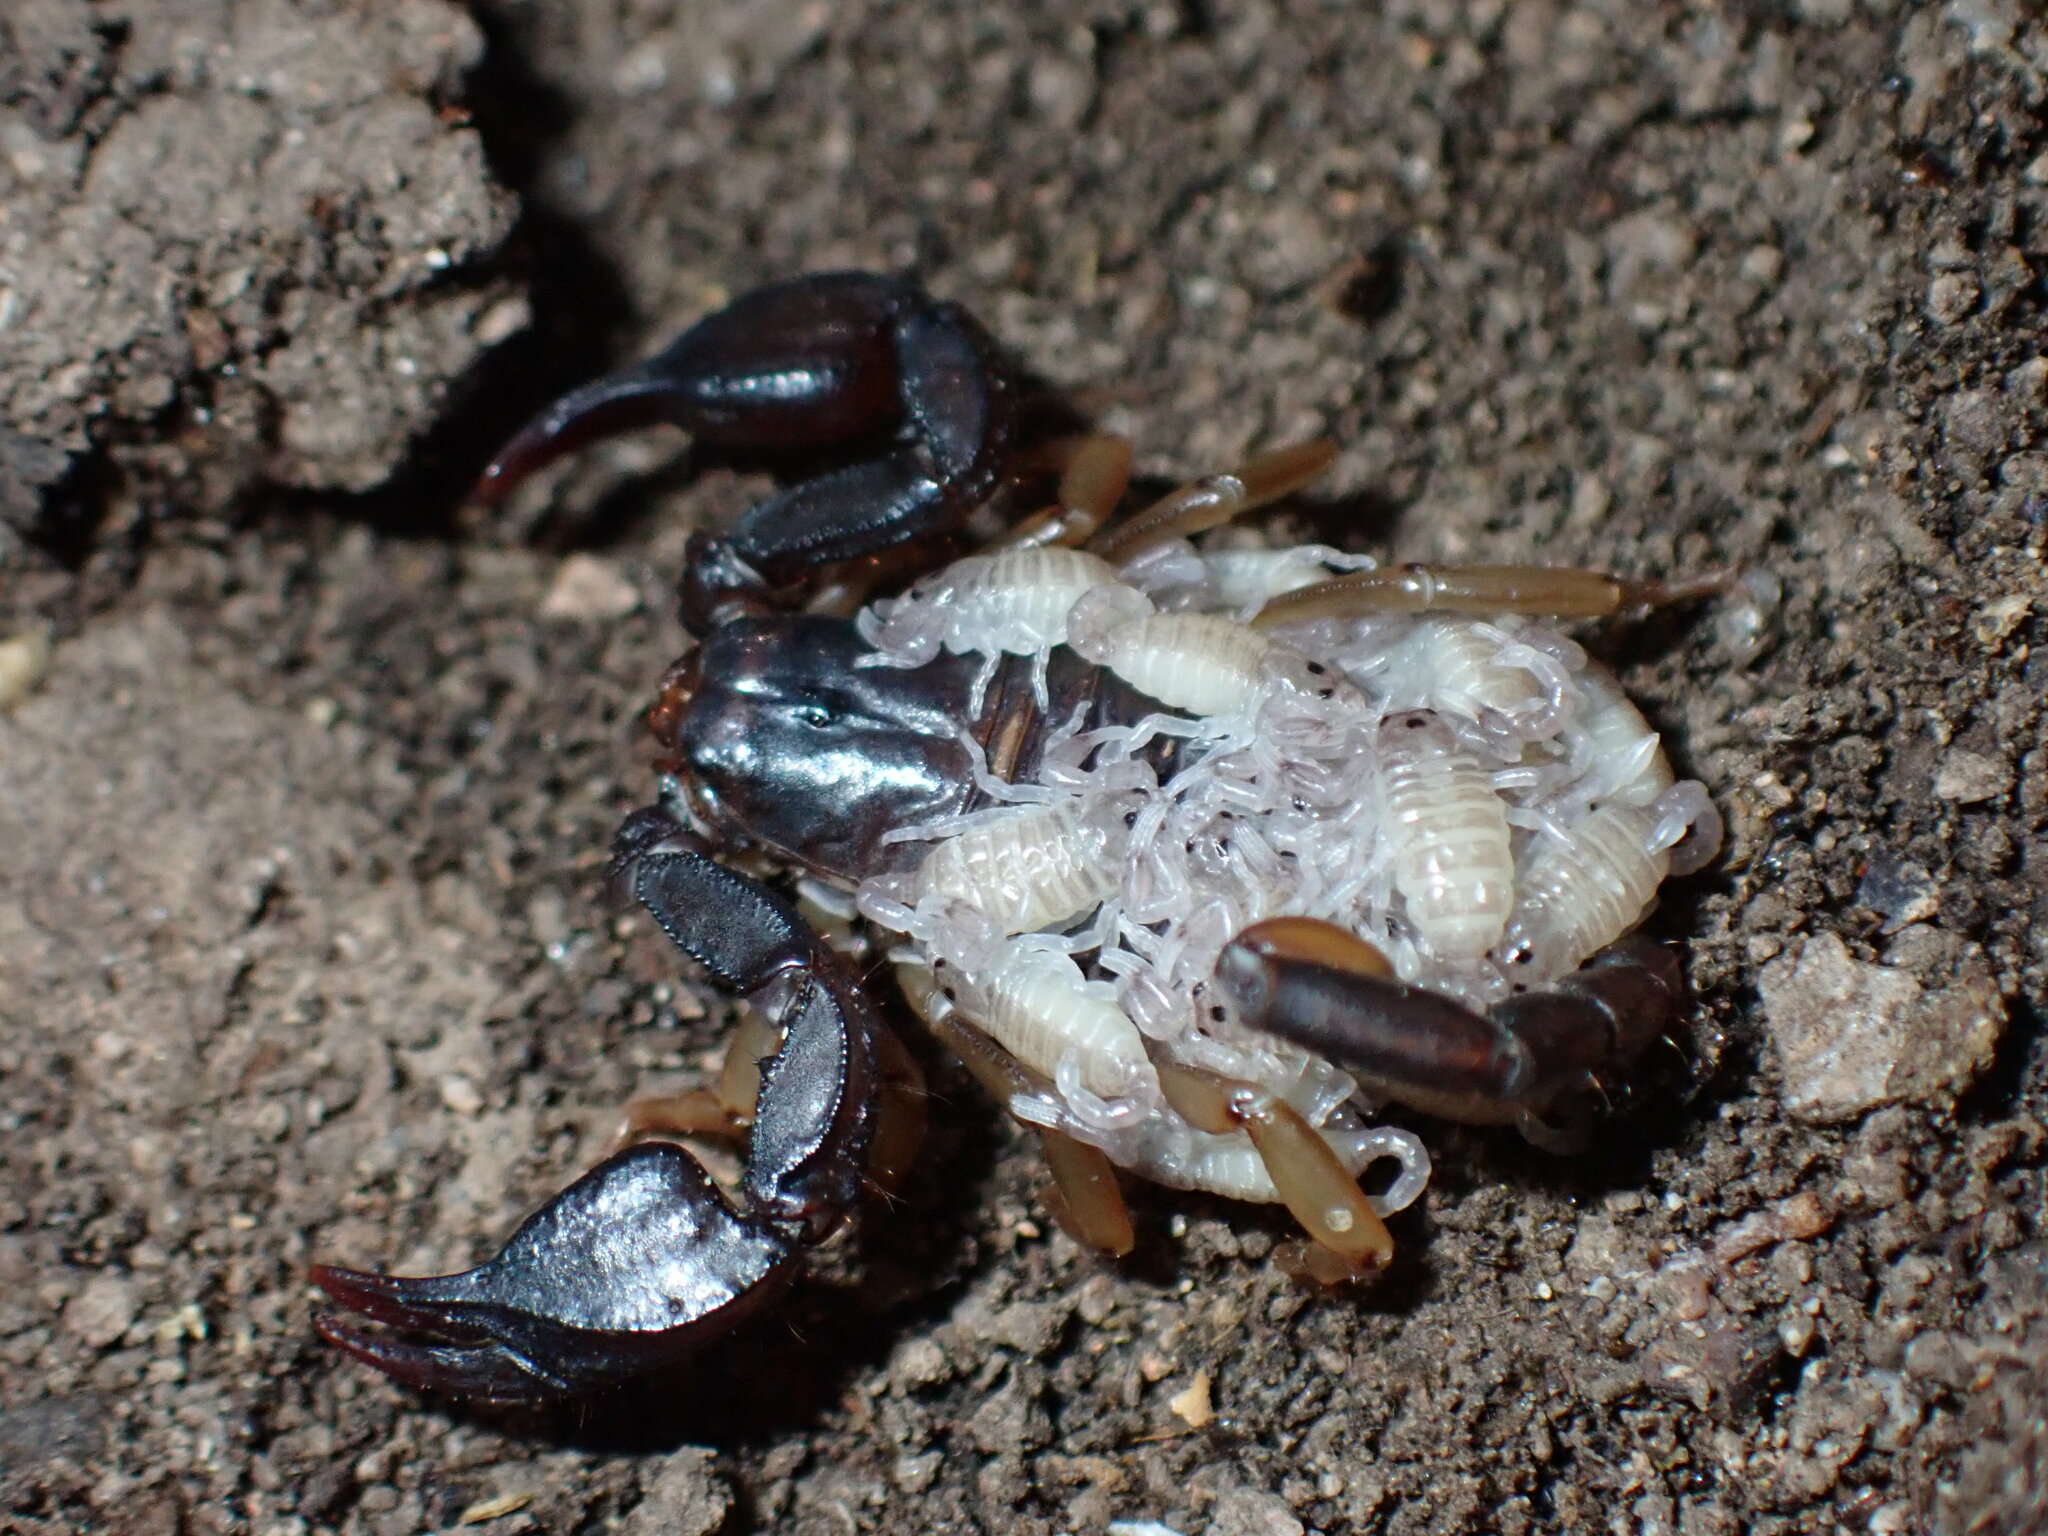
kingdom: Animalia
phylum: Arthropoda
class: Arachnida
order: Scorpiones
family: Euscorpiidae
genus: Euscorpius
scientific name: Euscorpius
